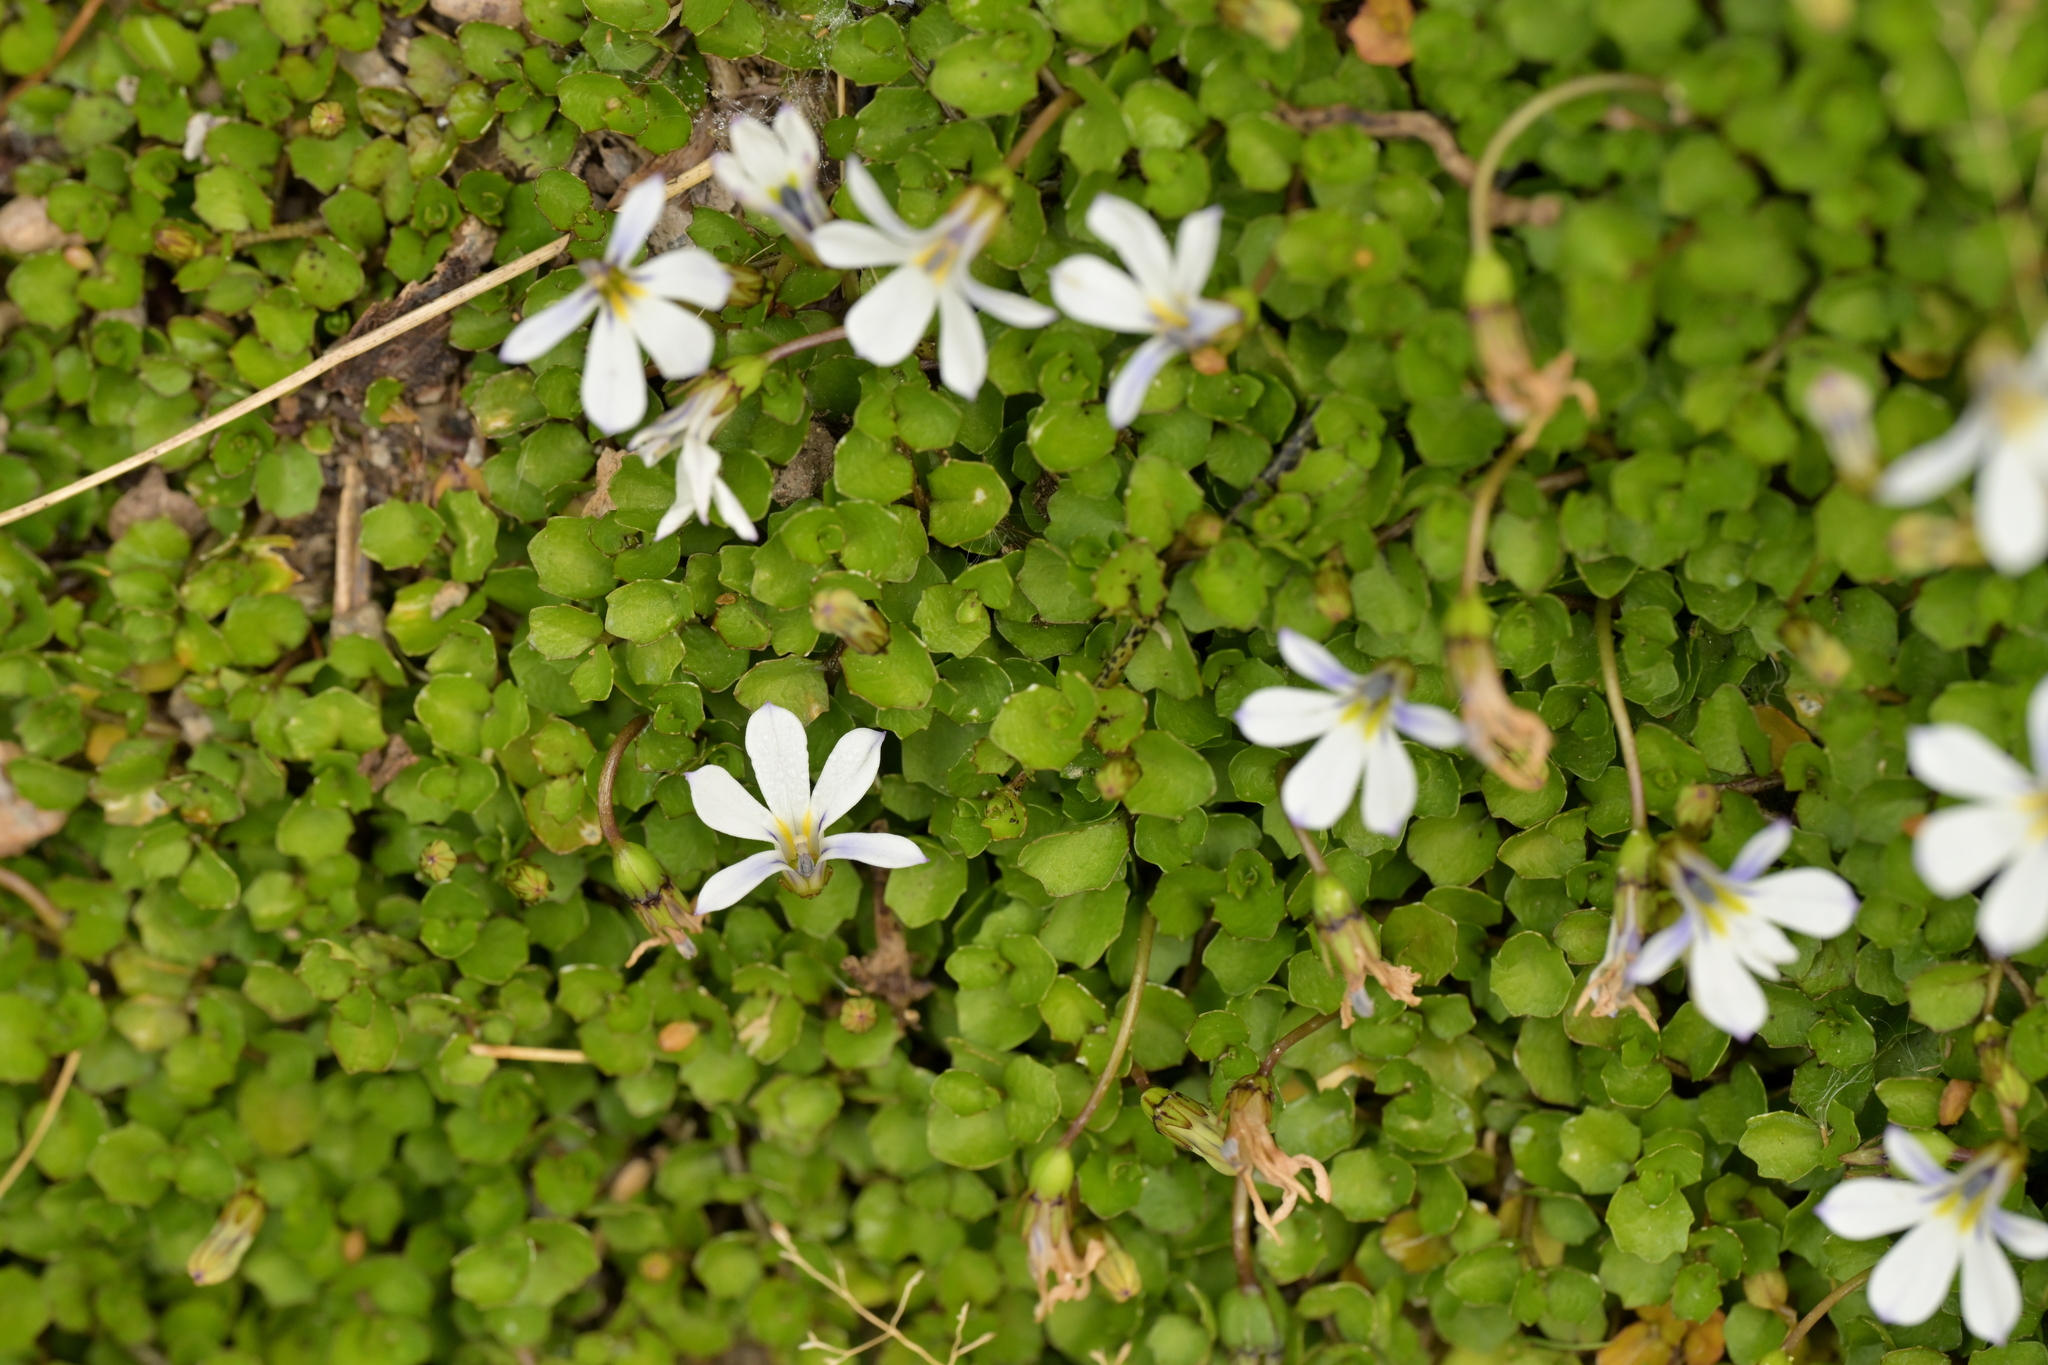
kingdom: Plantae
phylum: Tracheophyta
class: Magnoliopsida
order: Asterales
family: Campanulaceae
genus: Lobelia
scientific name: Lobelia angulata
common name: Lawn lobelia
